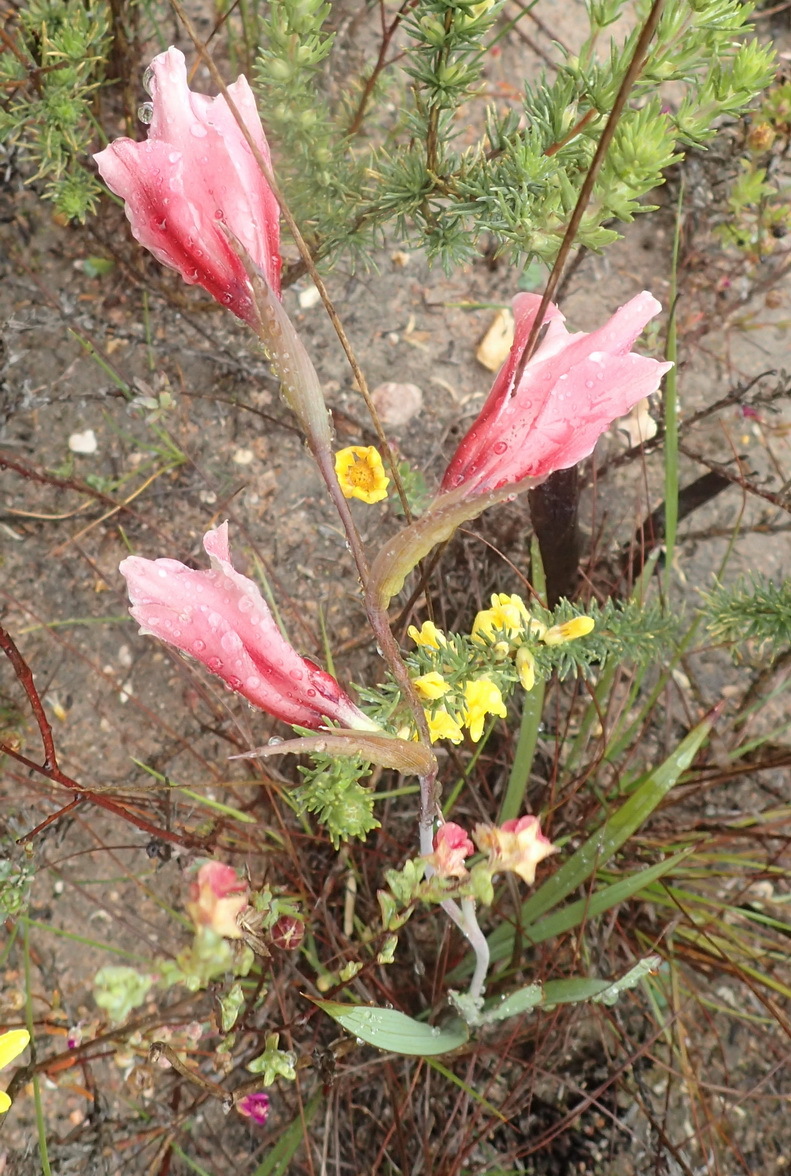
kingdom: Plantae
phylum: Tracheophyta
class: Liliopsida
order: Asparagales
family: Iridaceae
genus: Gladiolus
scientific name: Gladiolus floribundus
